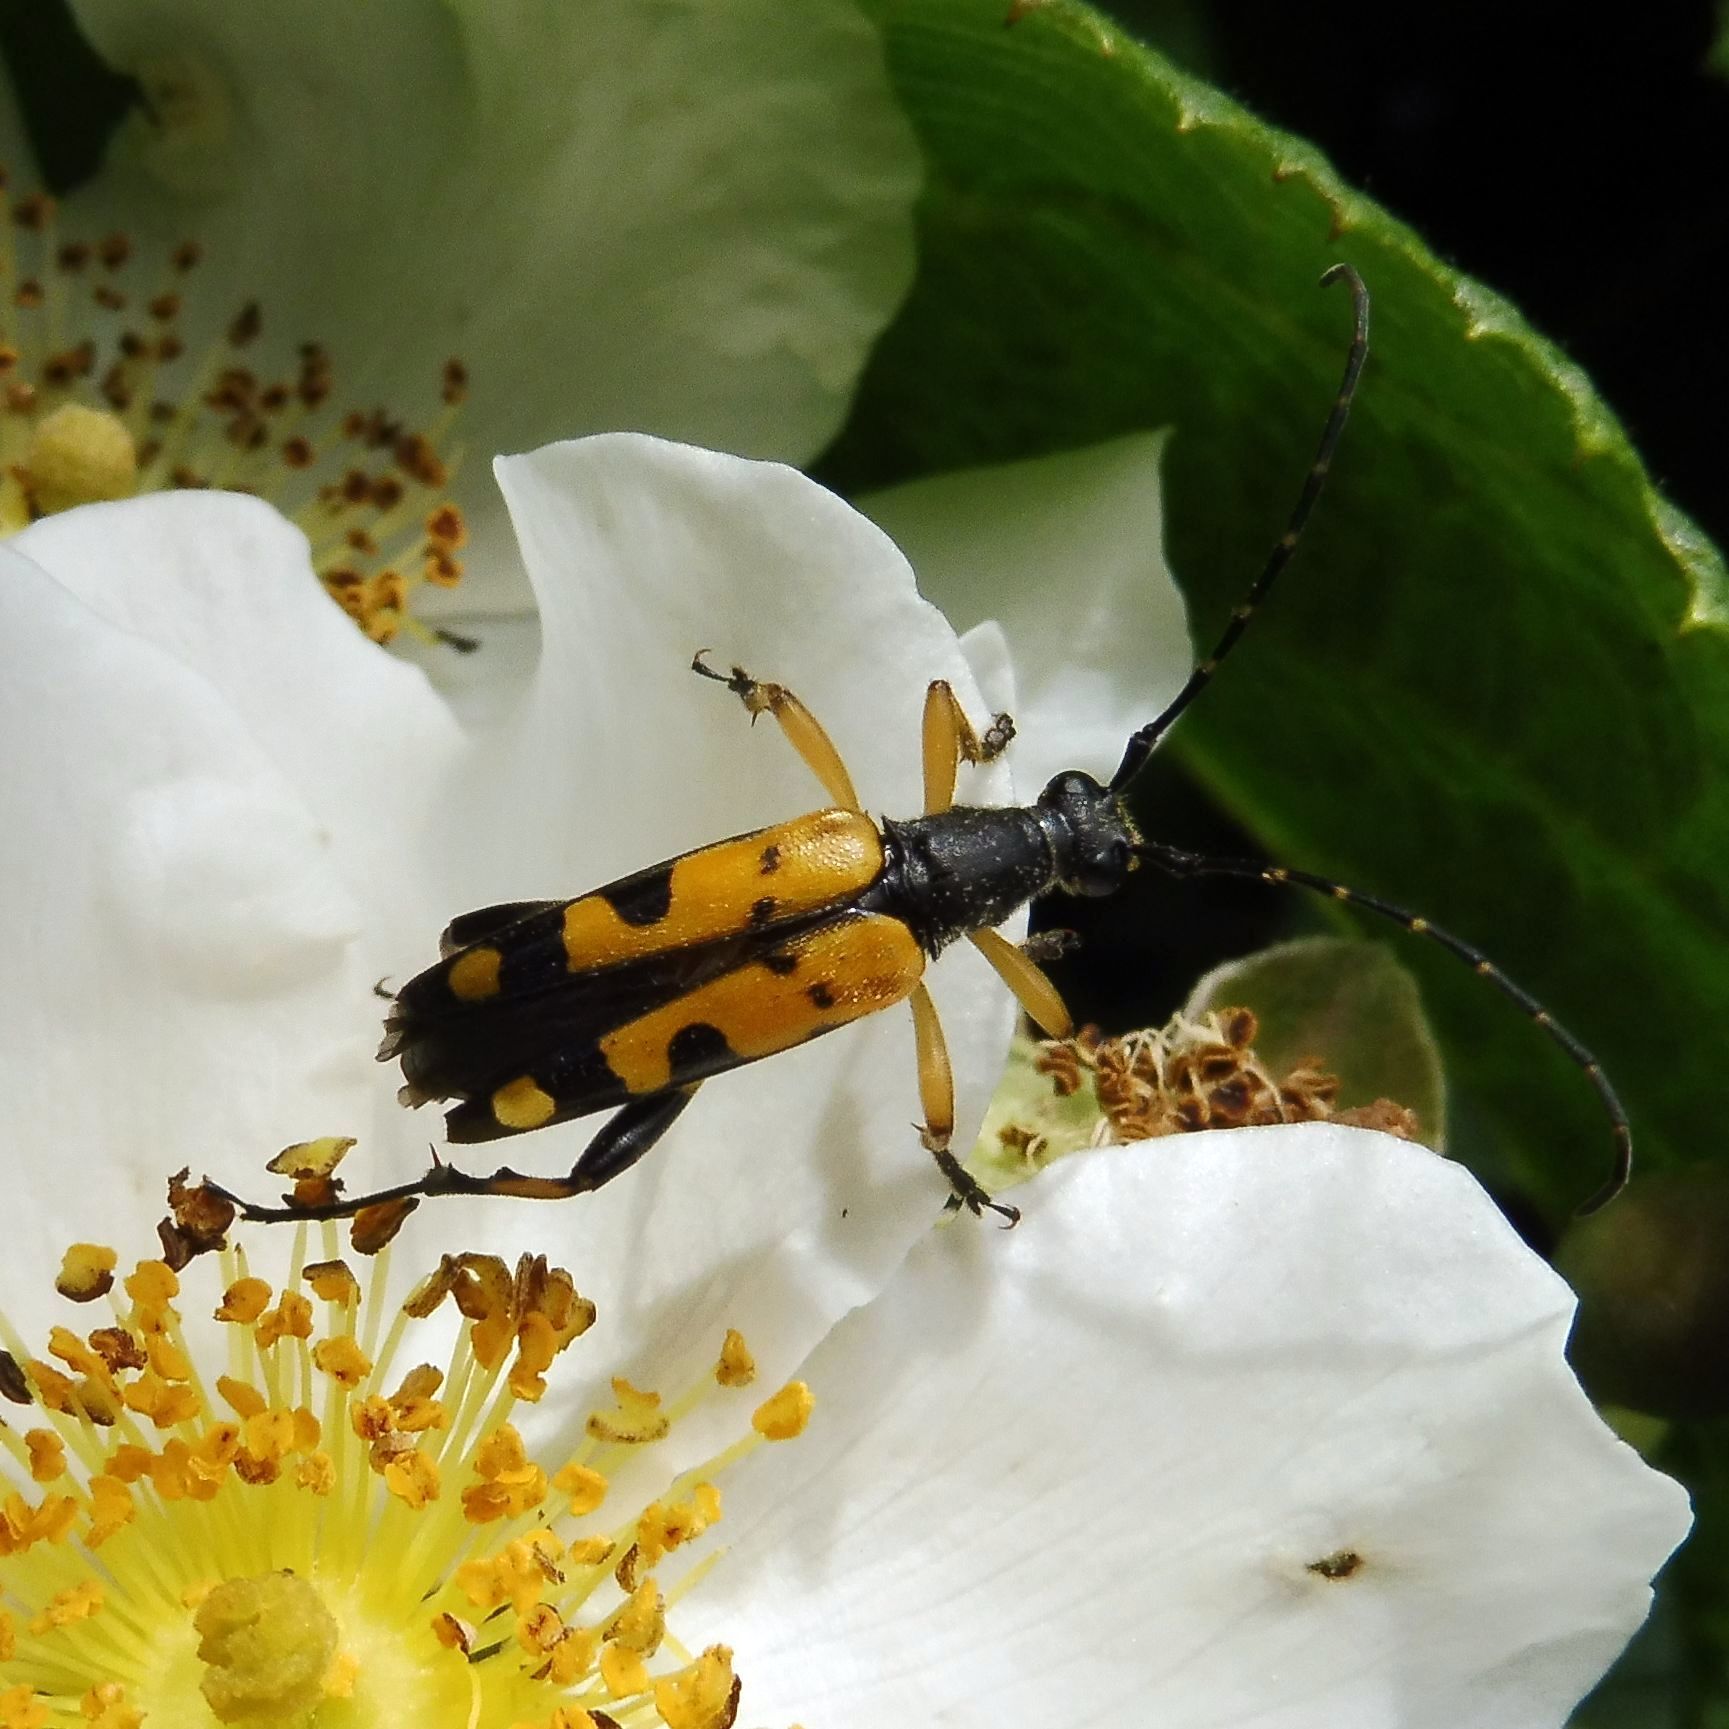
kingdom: Animalia
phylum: Arthropoda
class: Insecta
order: Coleoptera
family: Cerambycidae
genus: Rutpela
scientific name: Rutpela maculata
